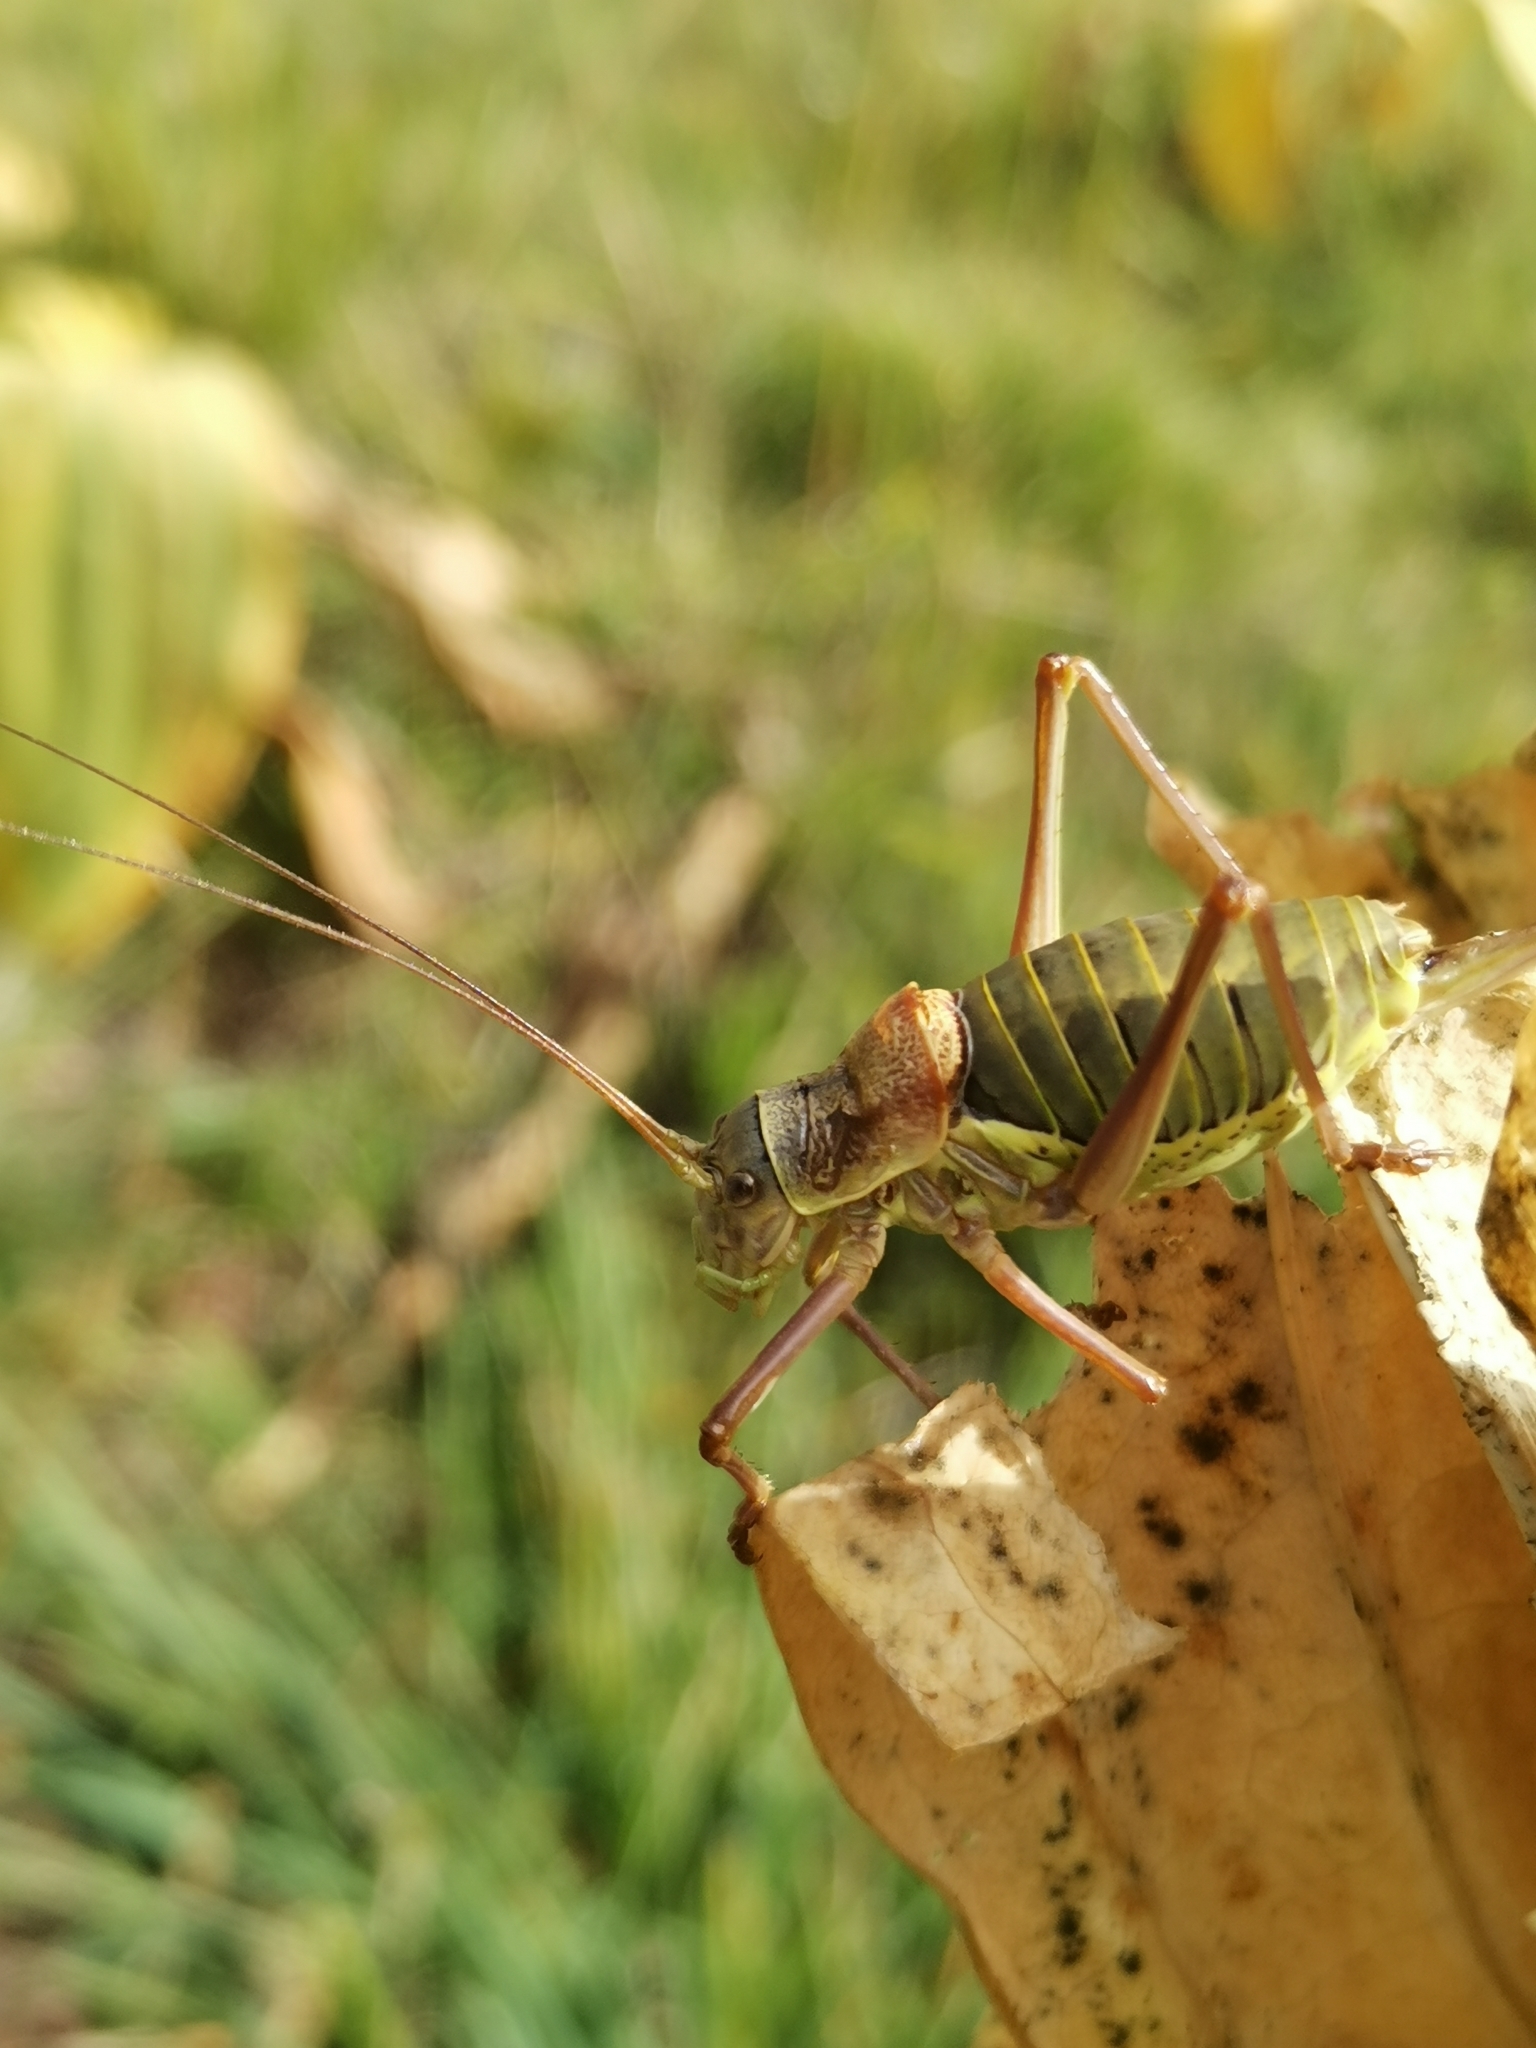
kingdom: Animalia
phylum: Arthropoda
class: Insecta
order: Orthoptera
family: Tettigoniidae
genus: Ephippiger
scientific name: Ephippiger diurnus
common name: Western saddle bush-cricket
